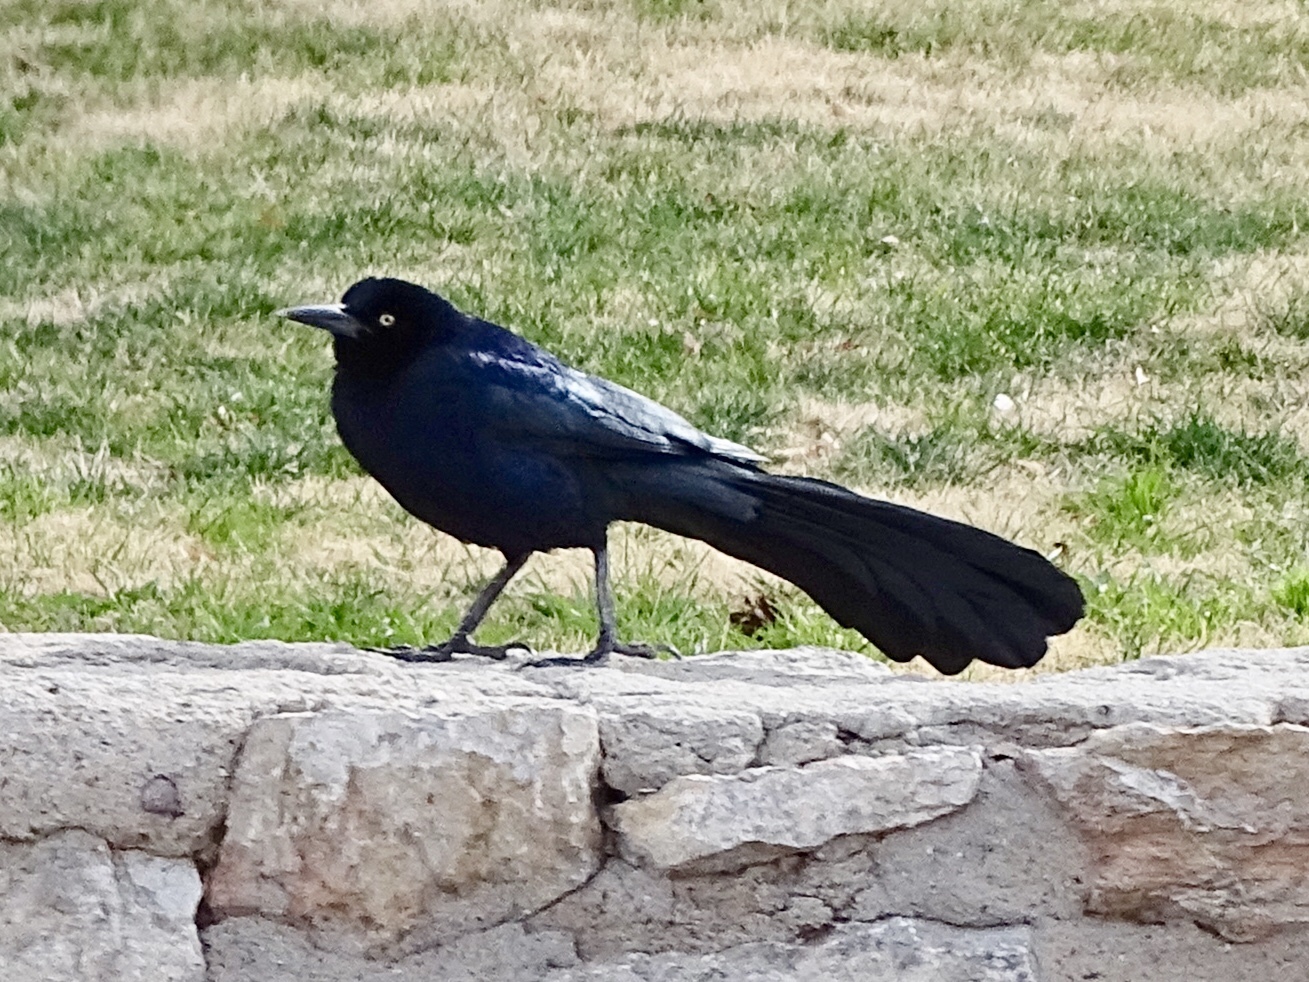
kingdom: Animalia
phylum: Chordata
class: Aves
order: Passeriformes
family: Icteridae
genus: Quiscalus
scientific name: Quiscalus mexicanus
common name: Great-tailed grackle
